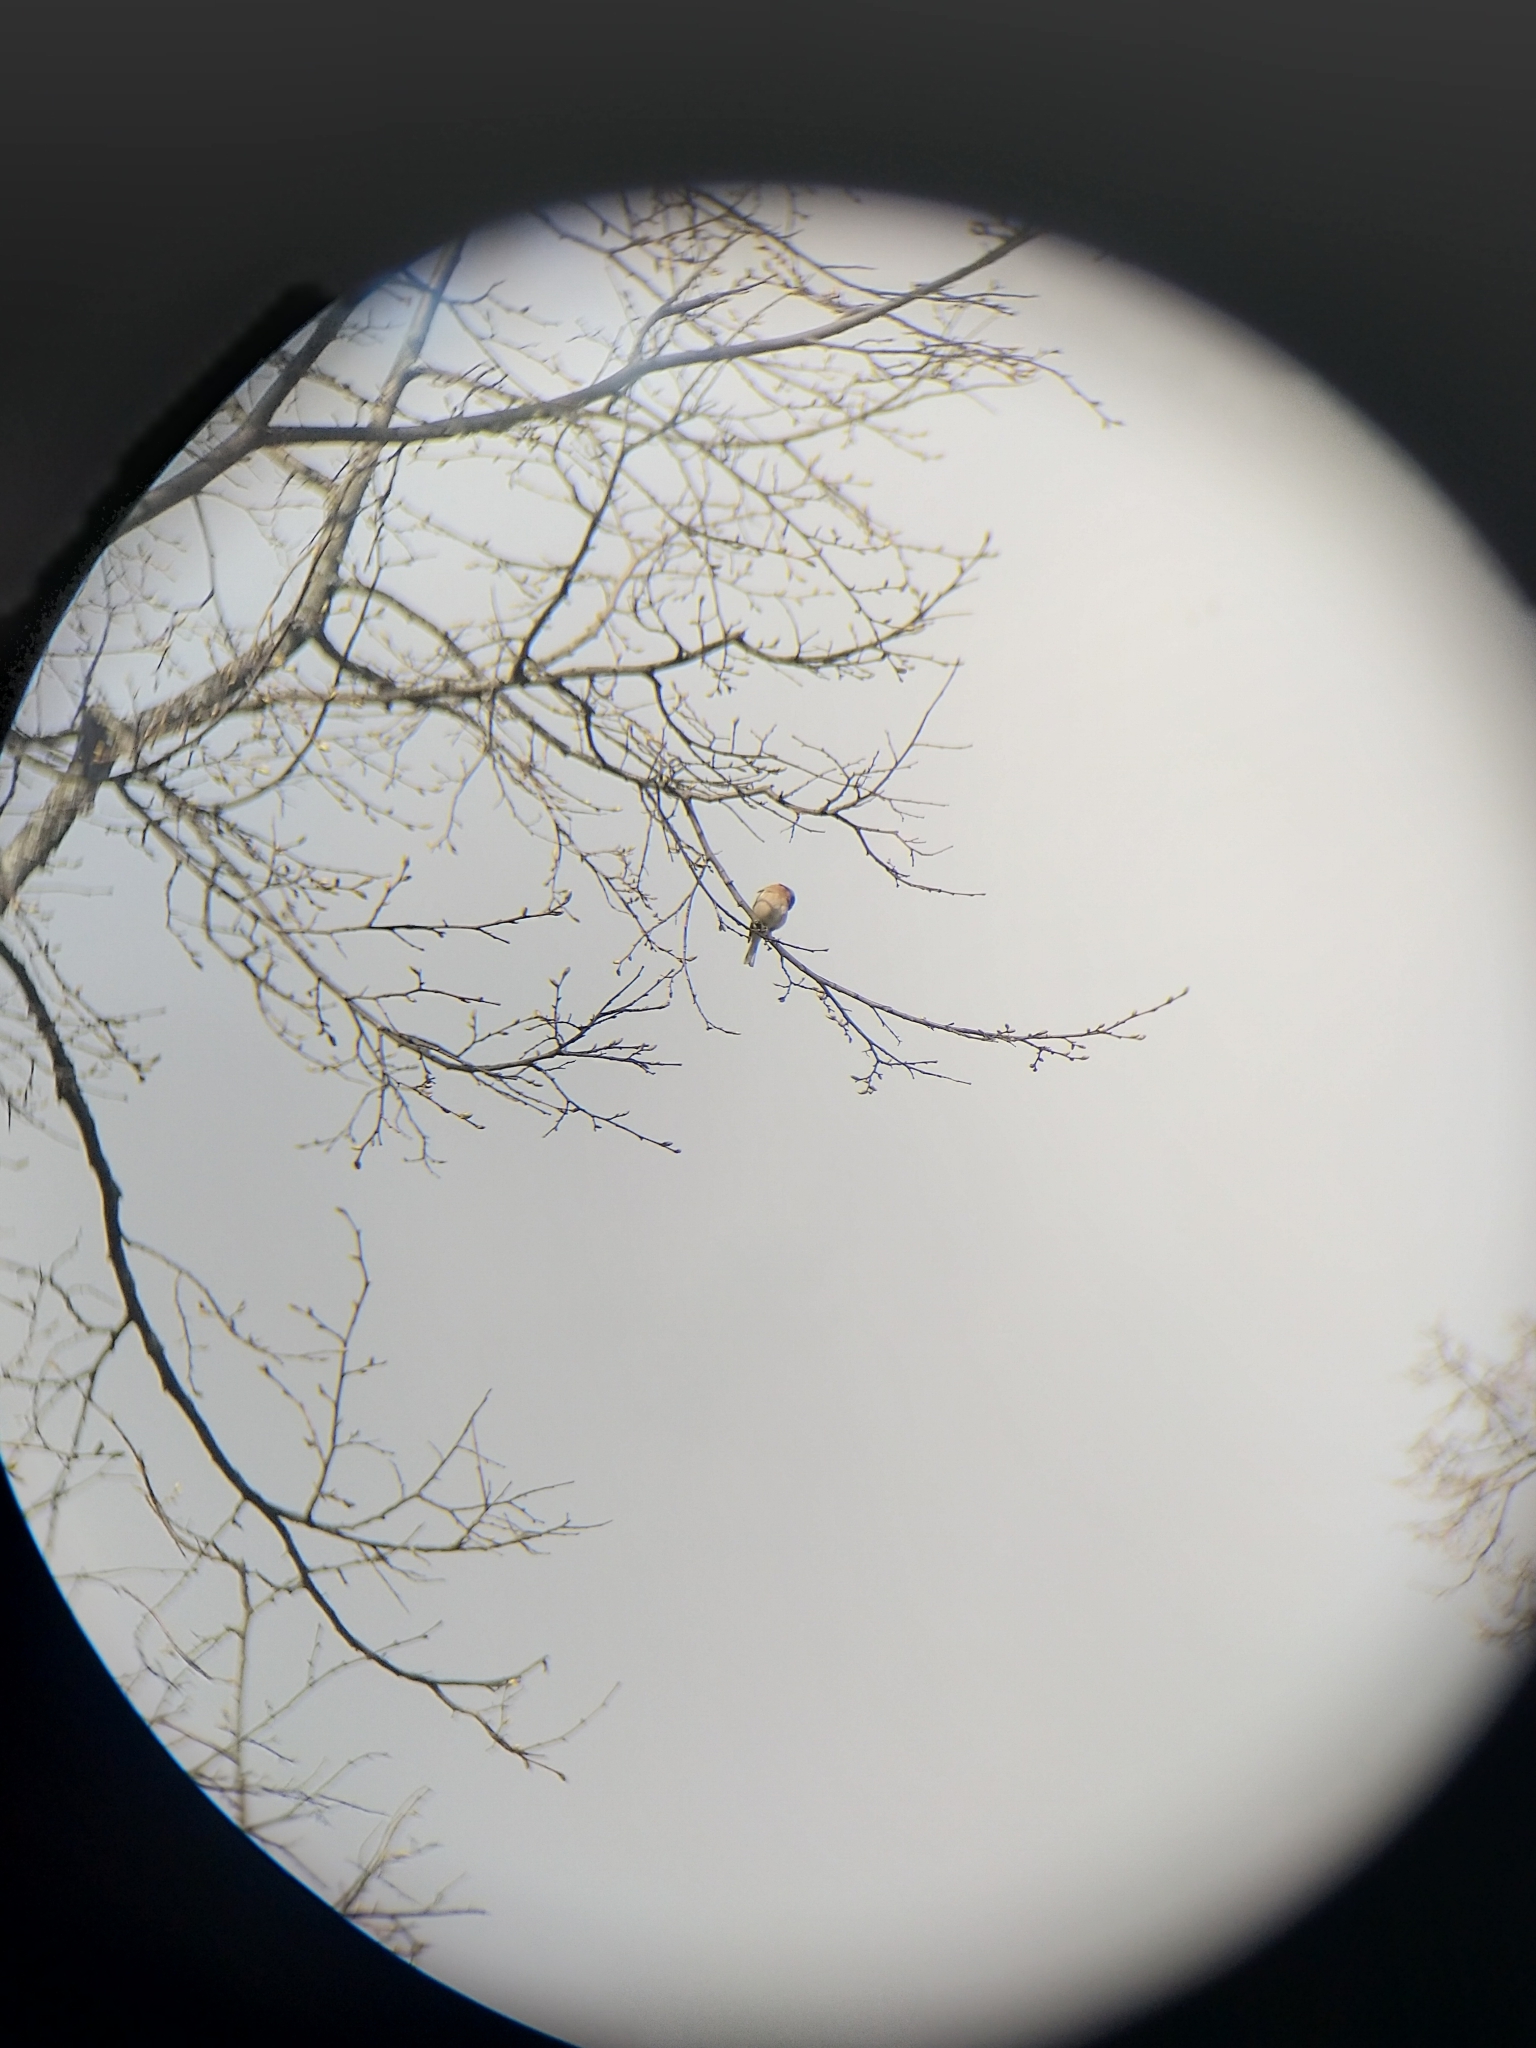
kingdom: Animalia
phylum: Chordata
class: Aves
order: Passeriformes
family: Fringillidae
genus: Fringilla
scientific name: Fringilla coelebs
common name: Common chaffinch
